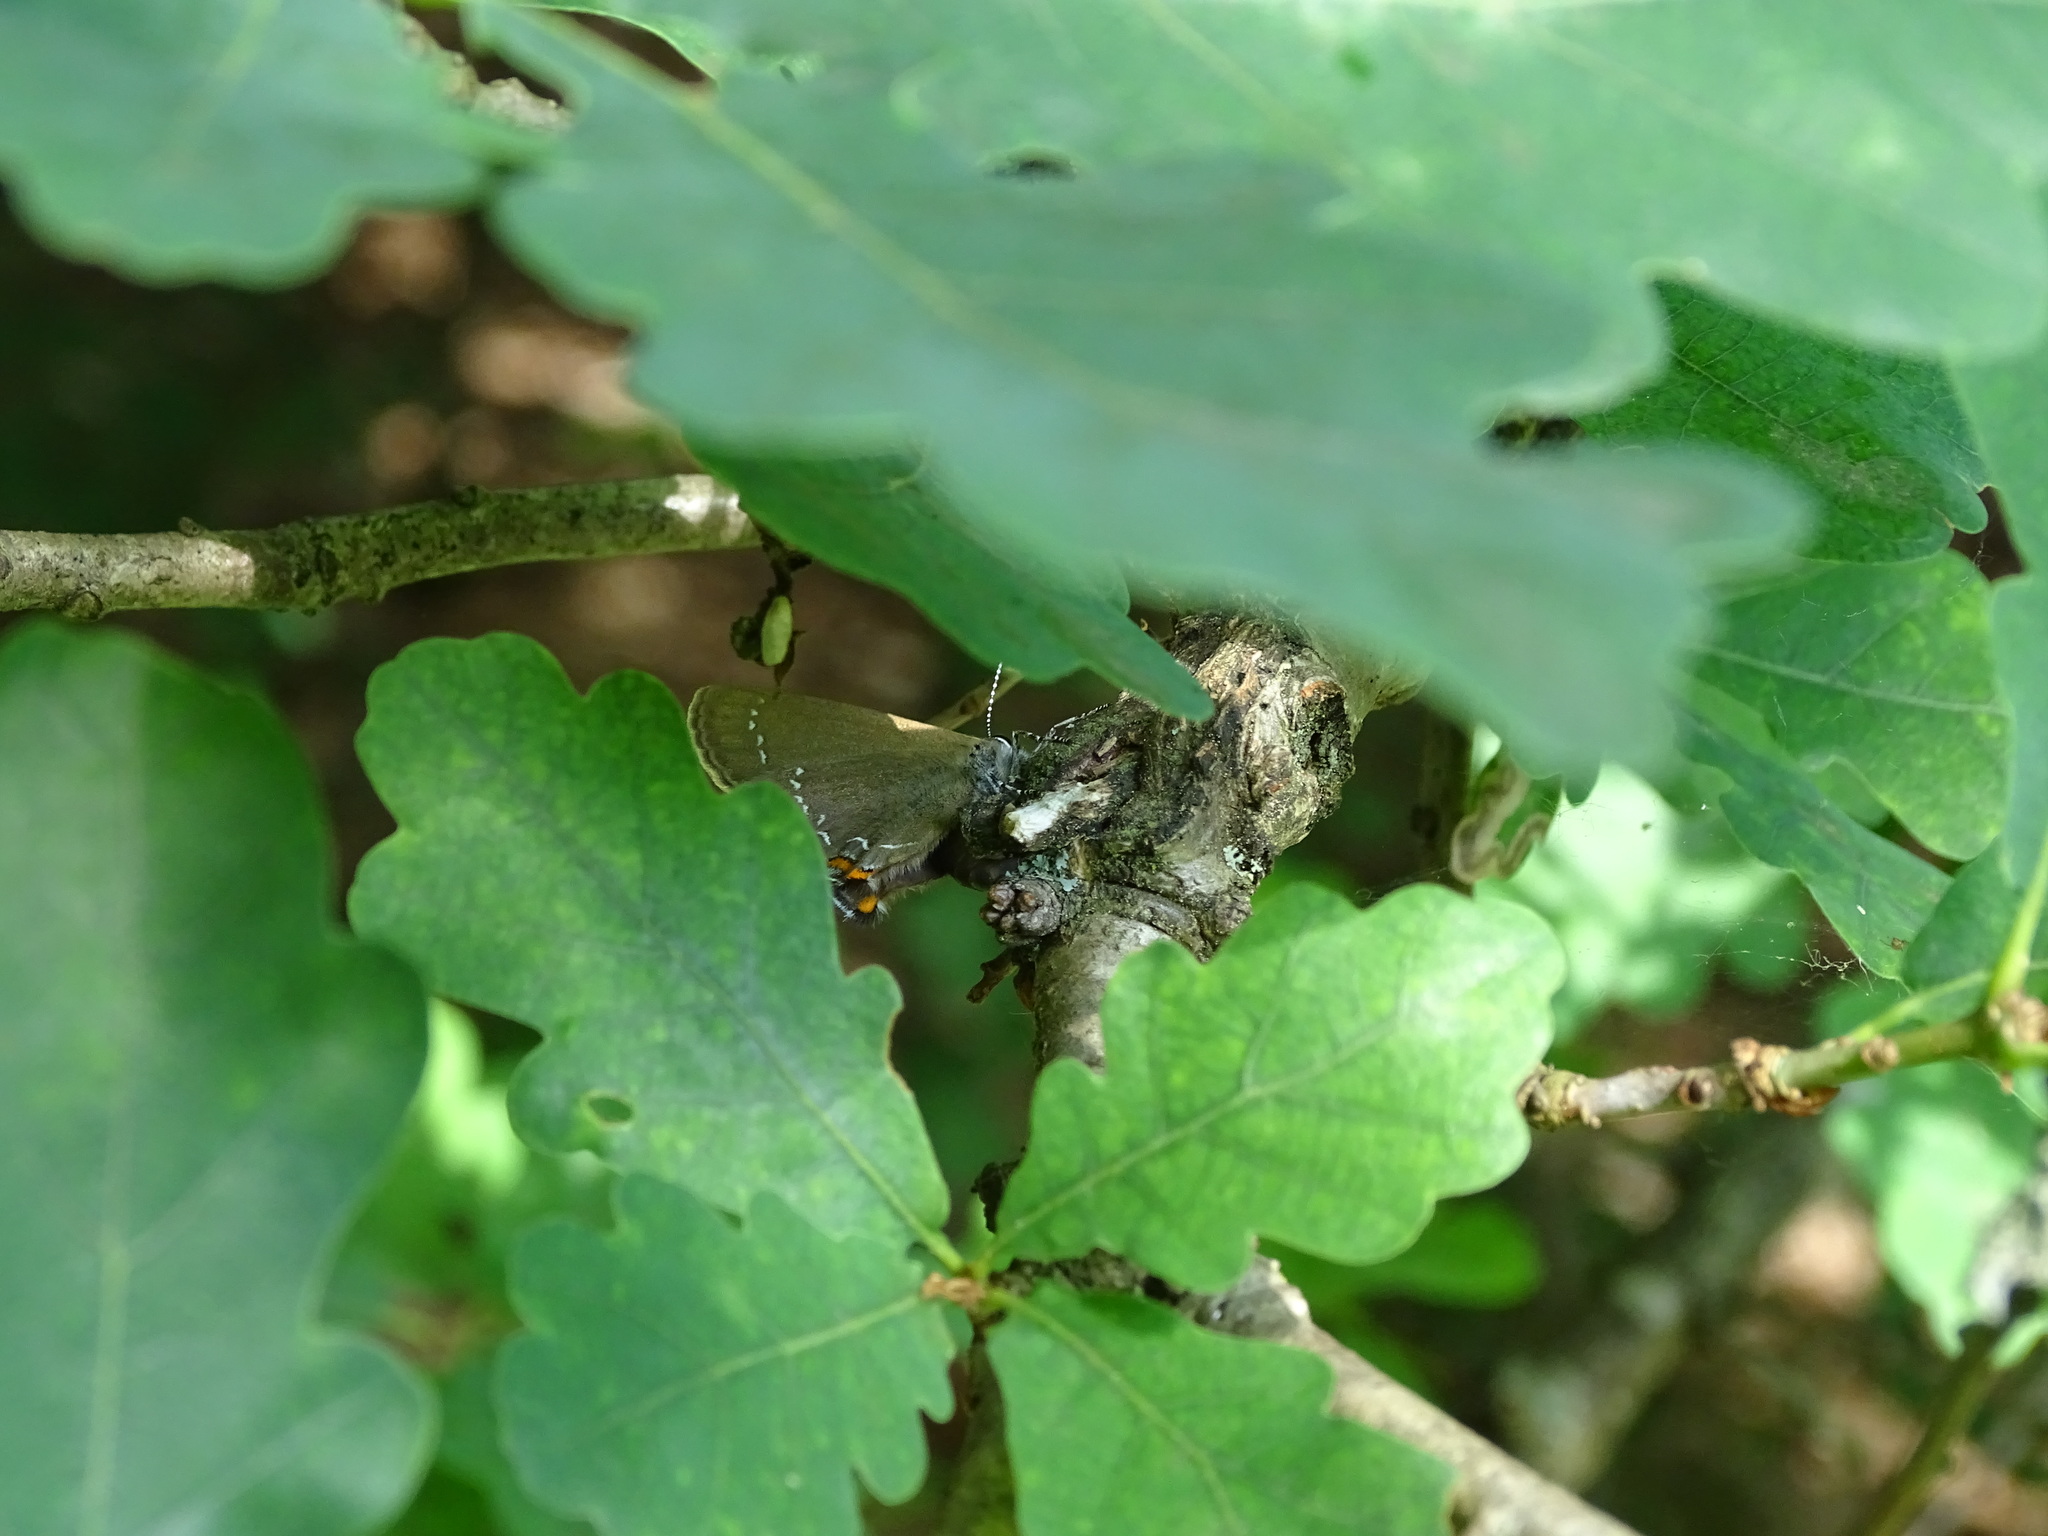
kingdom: Animalia
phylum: Arthropoda
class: Insecta
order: Lepidoptera
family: Lycaenidae
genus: Nordmannia
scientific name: Nordmannia ilicis
